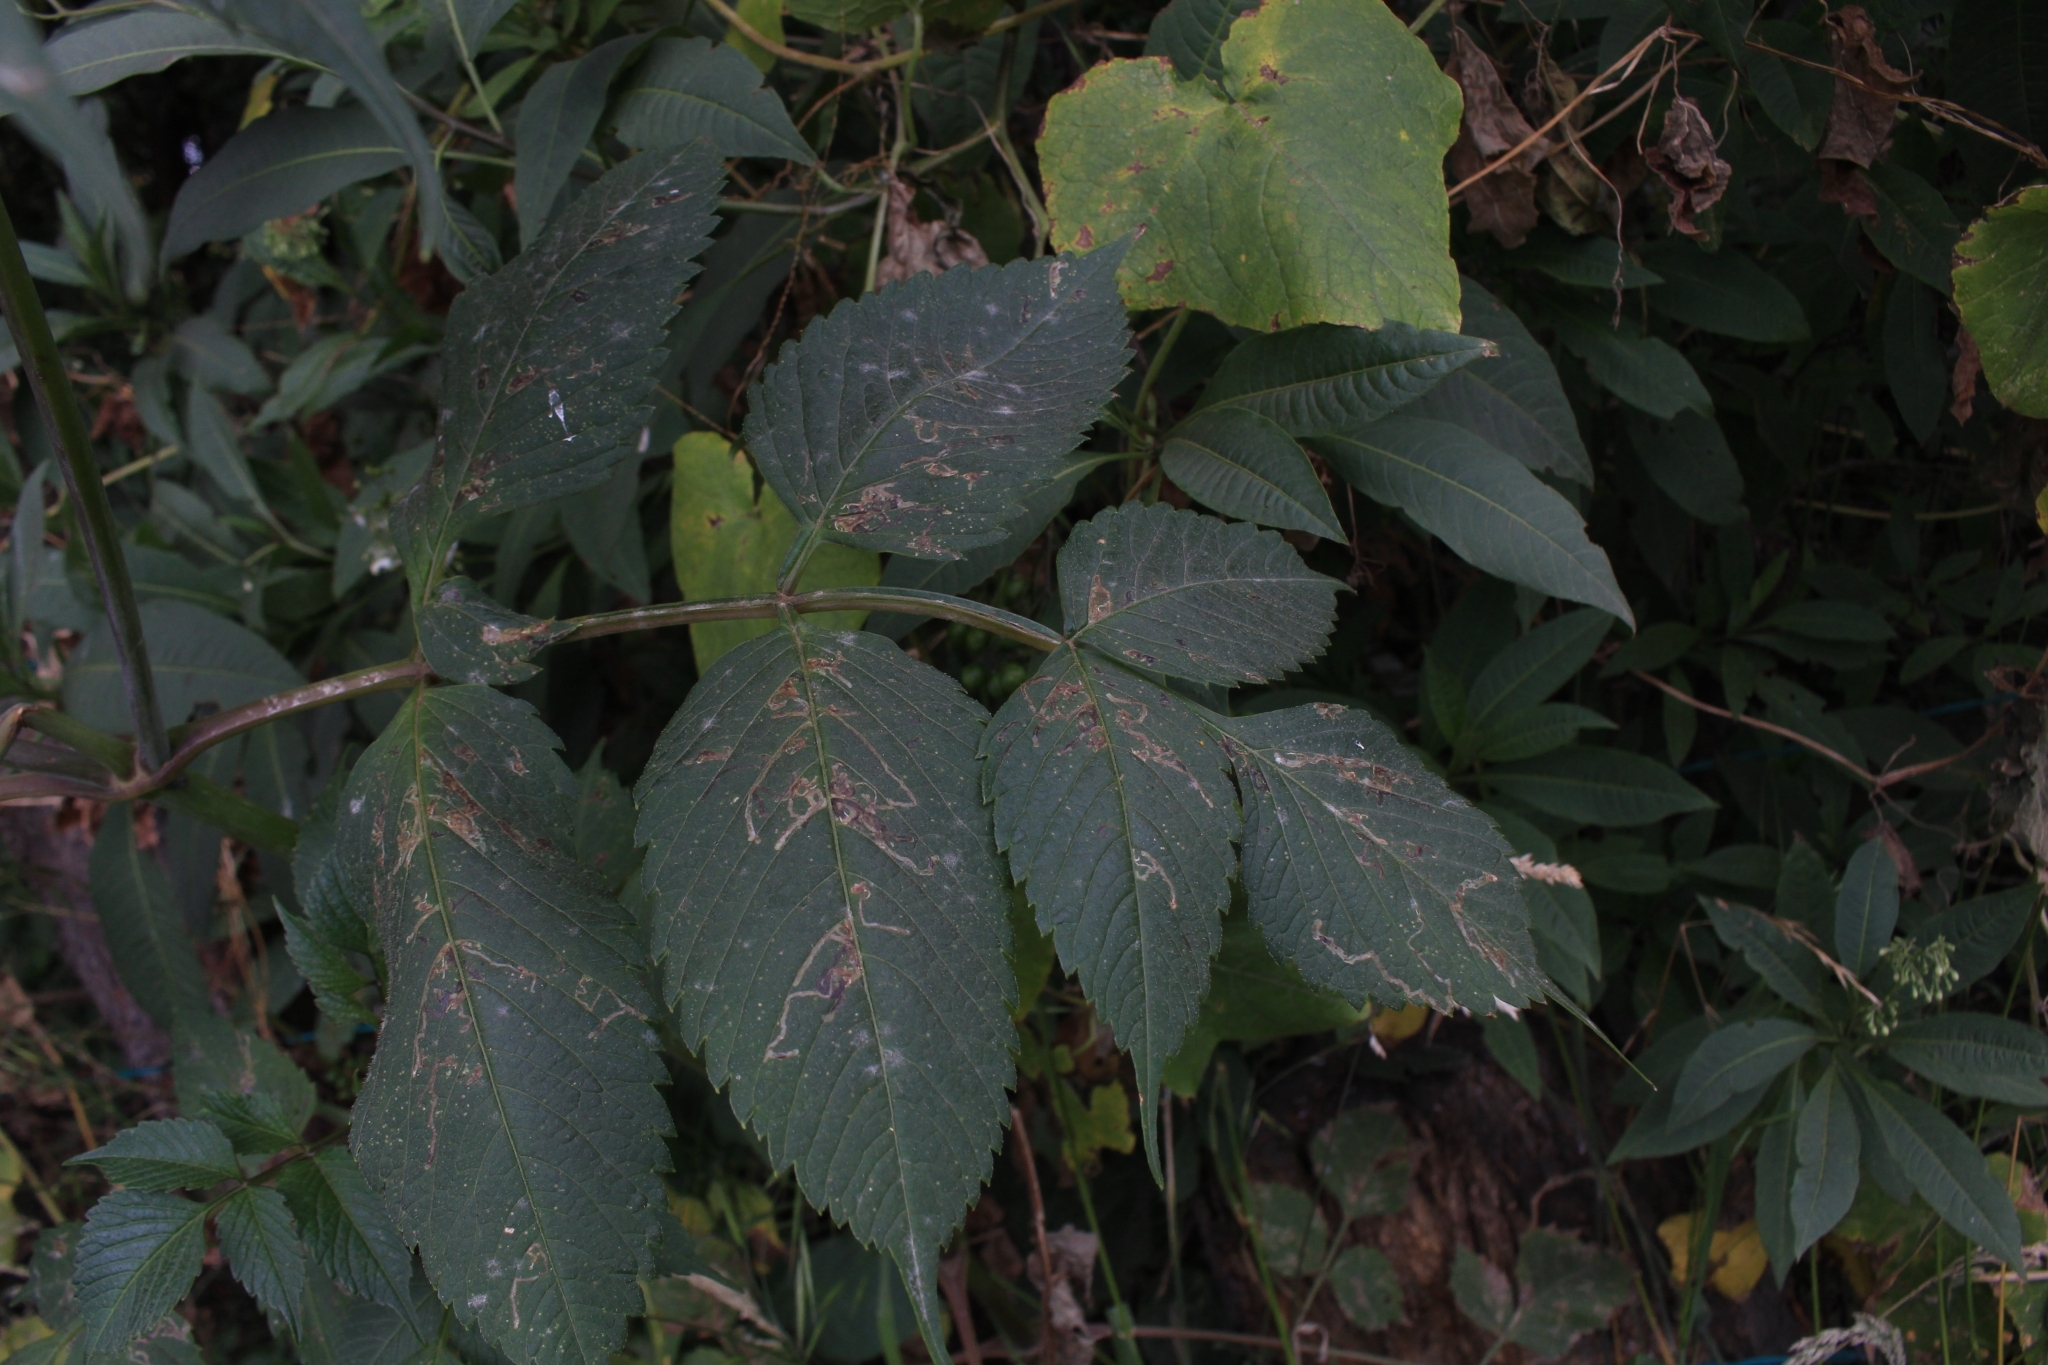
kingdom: Plantae
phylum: Tracheophyta
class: Magnoliopsida
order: Asterales
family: Asteraceae
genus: Dahlia
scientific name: Dahlia imperialis
